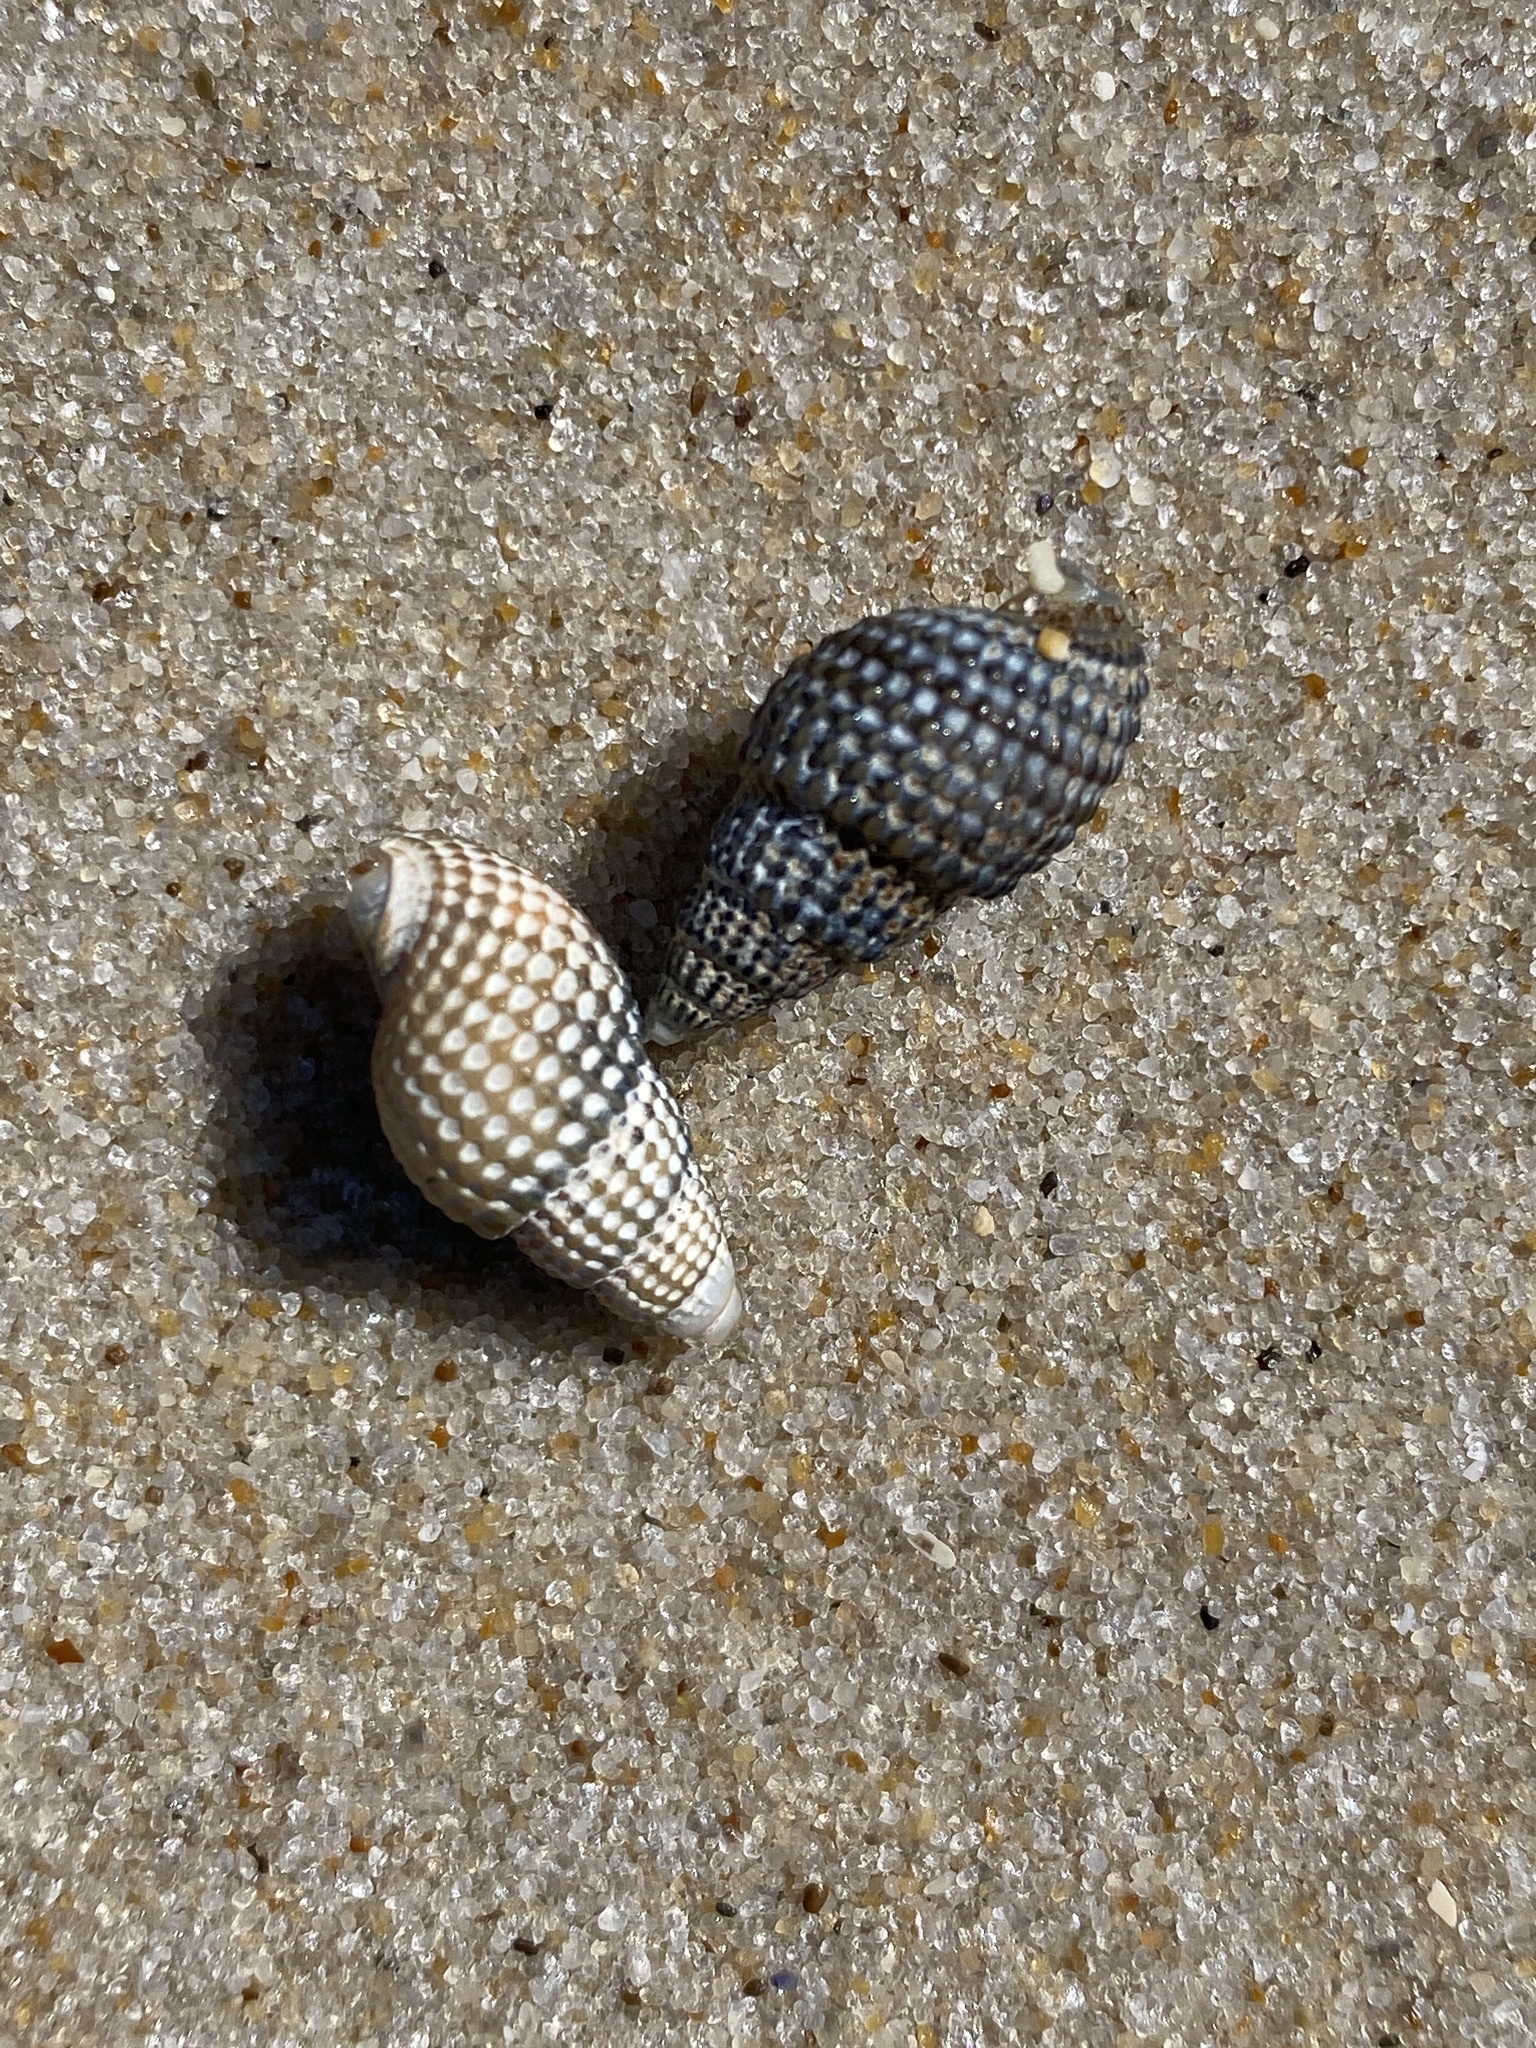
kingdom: Animalia
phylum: Mollusca
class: Gastropoda
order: Neogastropoda
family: Nassariidae
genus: Ilyanassa
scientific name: Ilyanassa trivittata
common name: Three-line mudsnail
